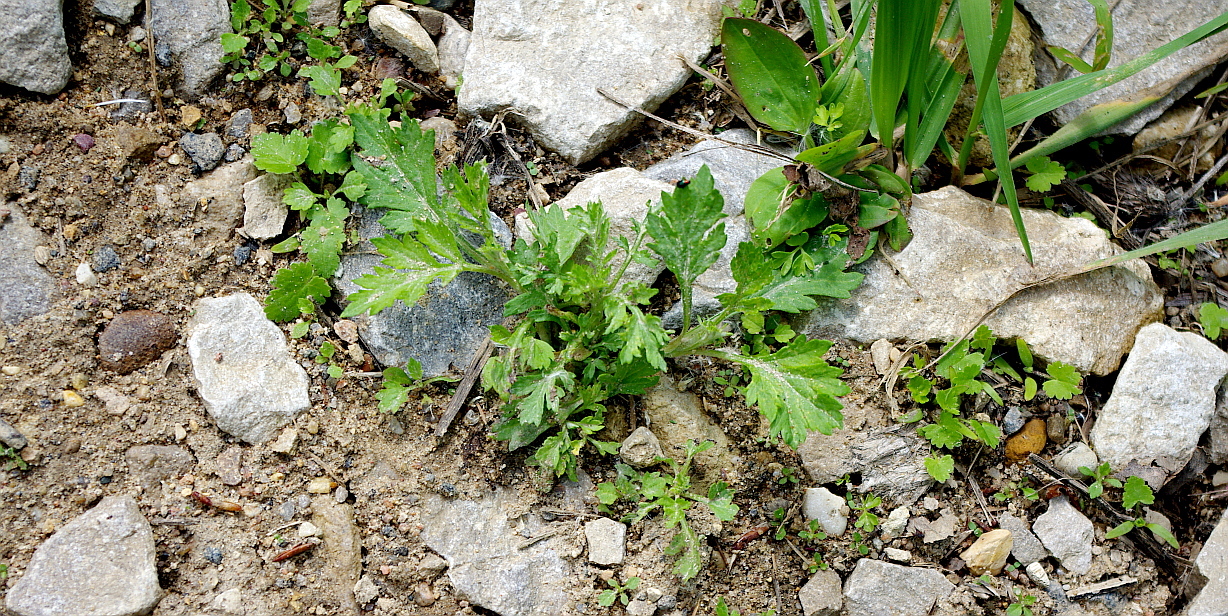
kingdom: Plantae
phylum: Tracheophyta
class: Magnoliopsida
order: Asterales
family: Asteraceae
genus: Artemisia
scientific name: Artemisia vulgaris
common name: Mugwort
